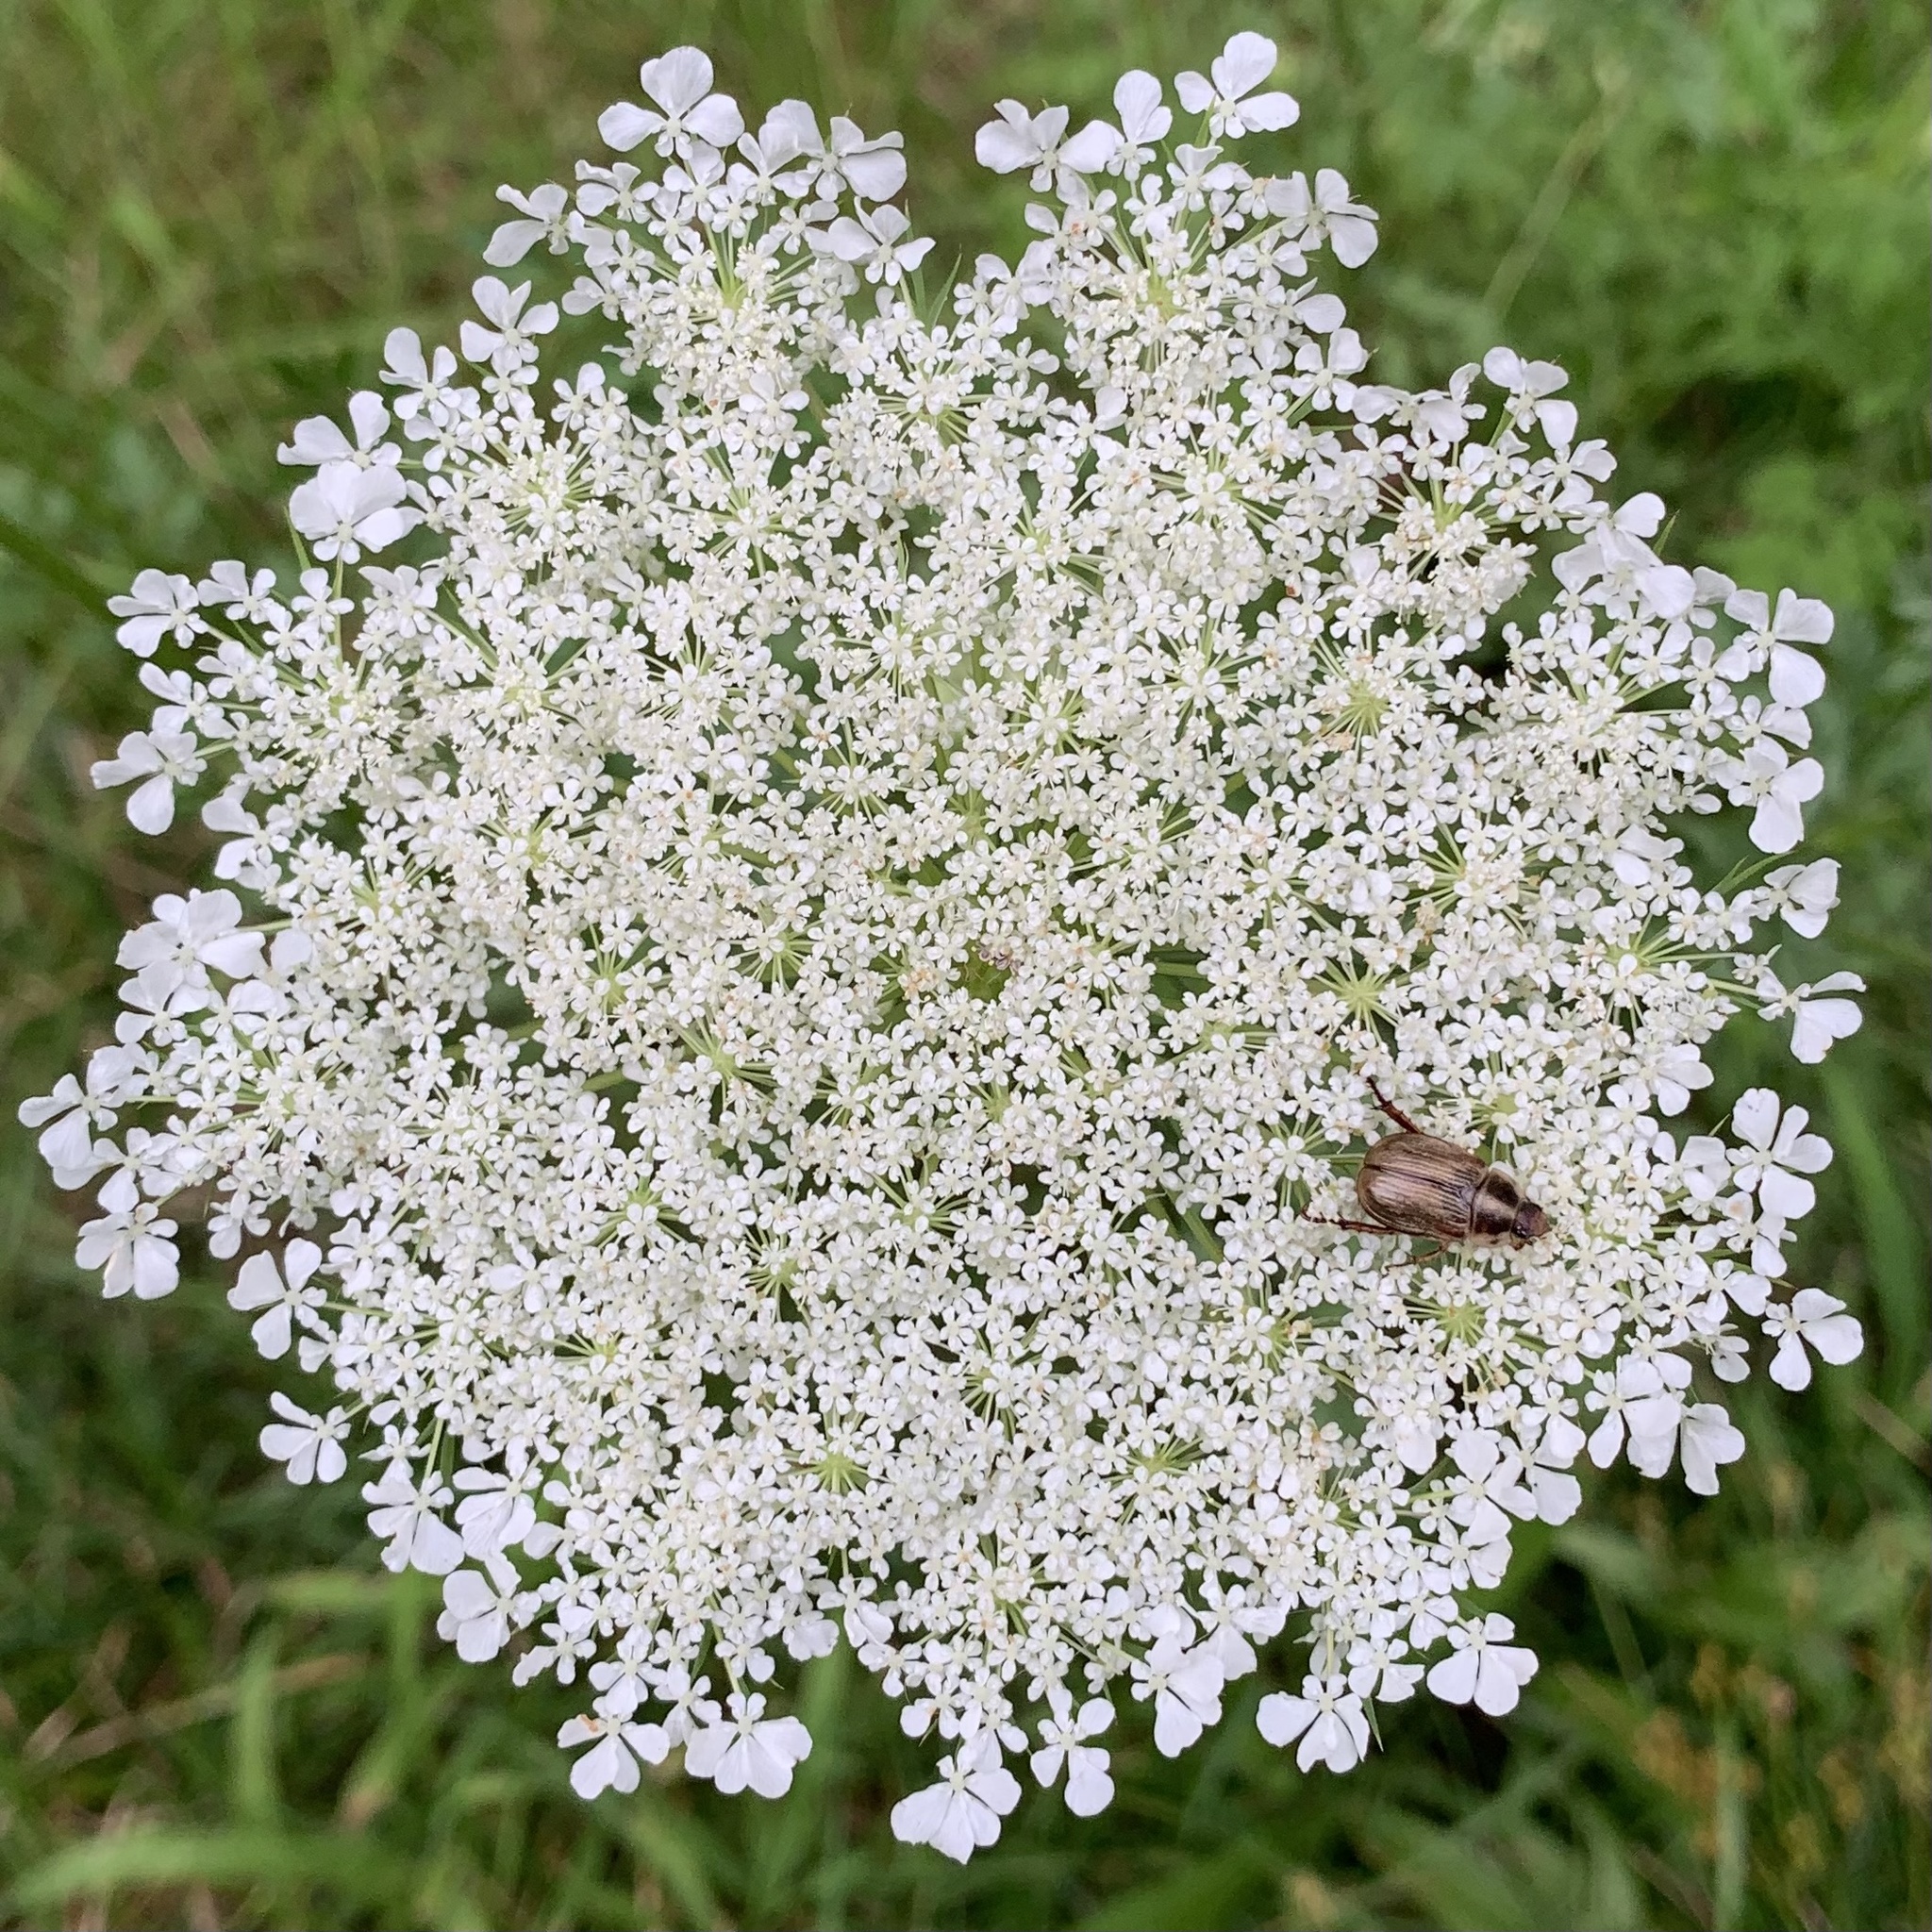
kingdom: Plantae
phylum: Tracheophyta
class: Magnoliopsida
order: Apiales
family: Apiaceae
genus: Daucus
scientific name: Daucus carota
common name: Wild carrot
